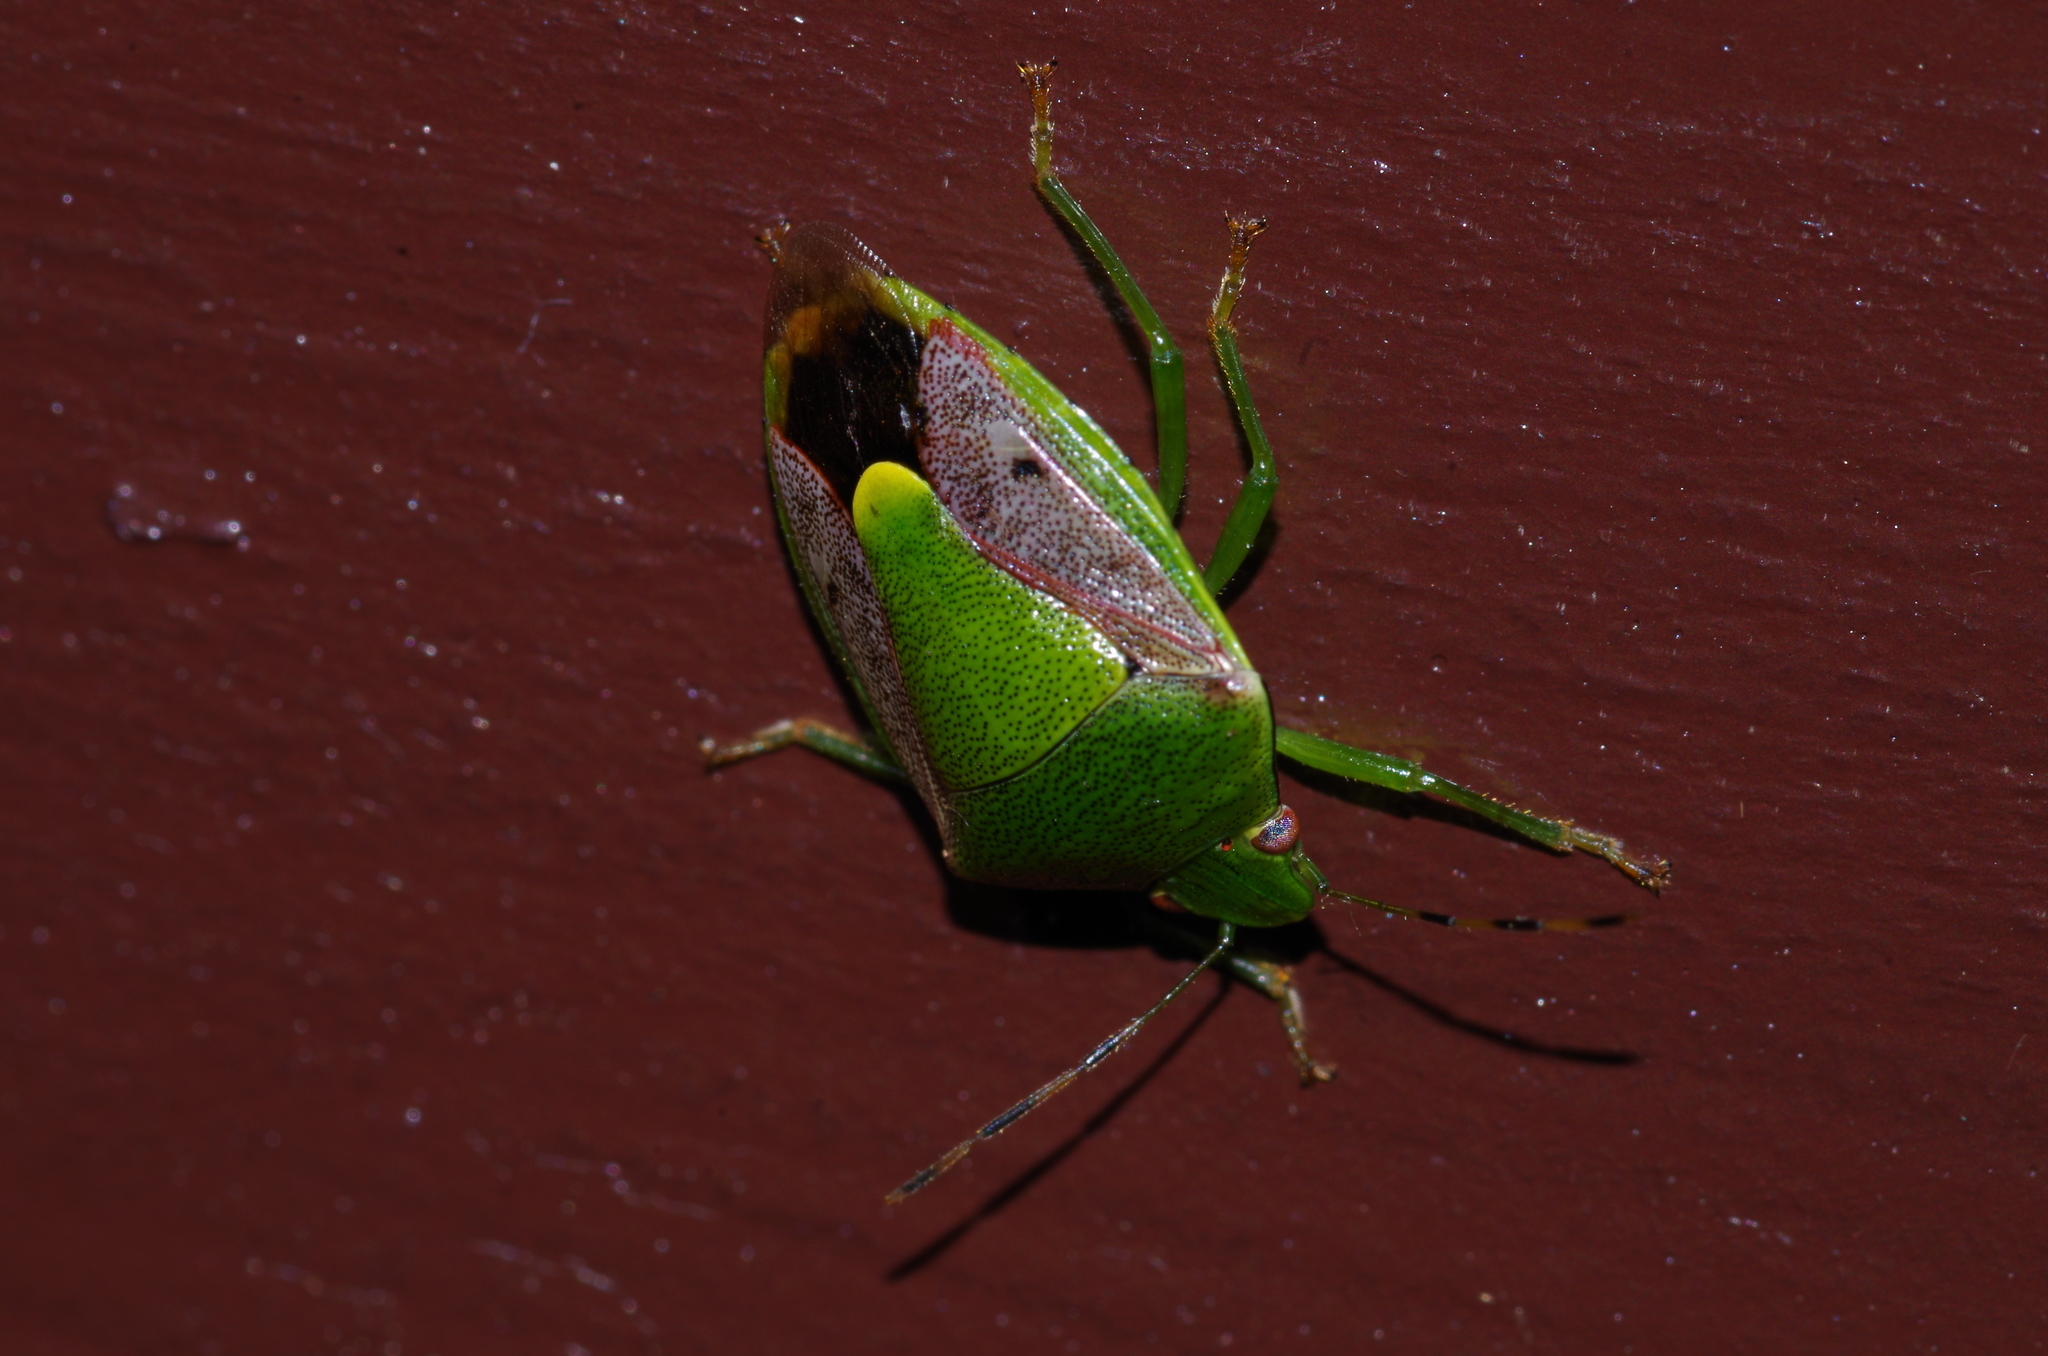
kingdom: Animalia
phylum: Arthropoda
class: Insecta
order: Hemiptera
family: Pentatomidae
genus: Plautia
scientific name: Plautia stali
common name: Stink bug
